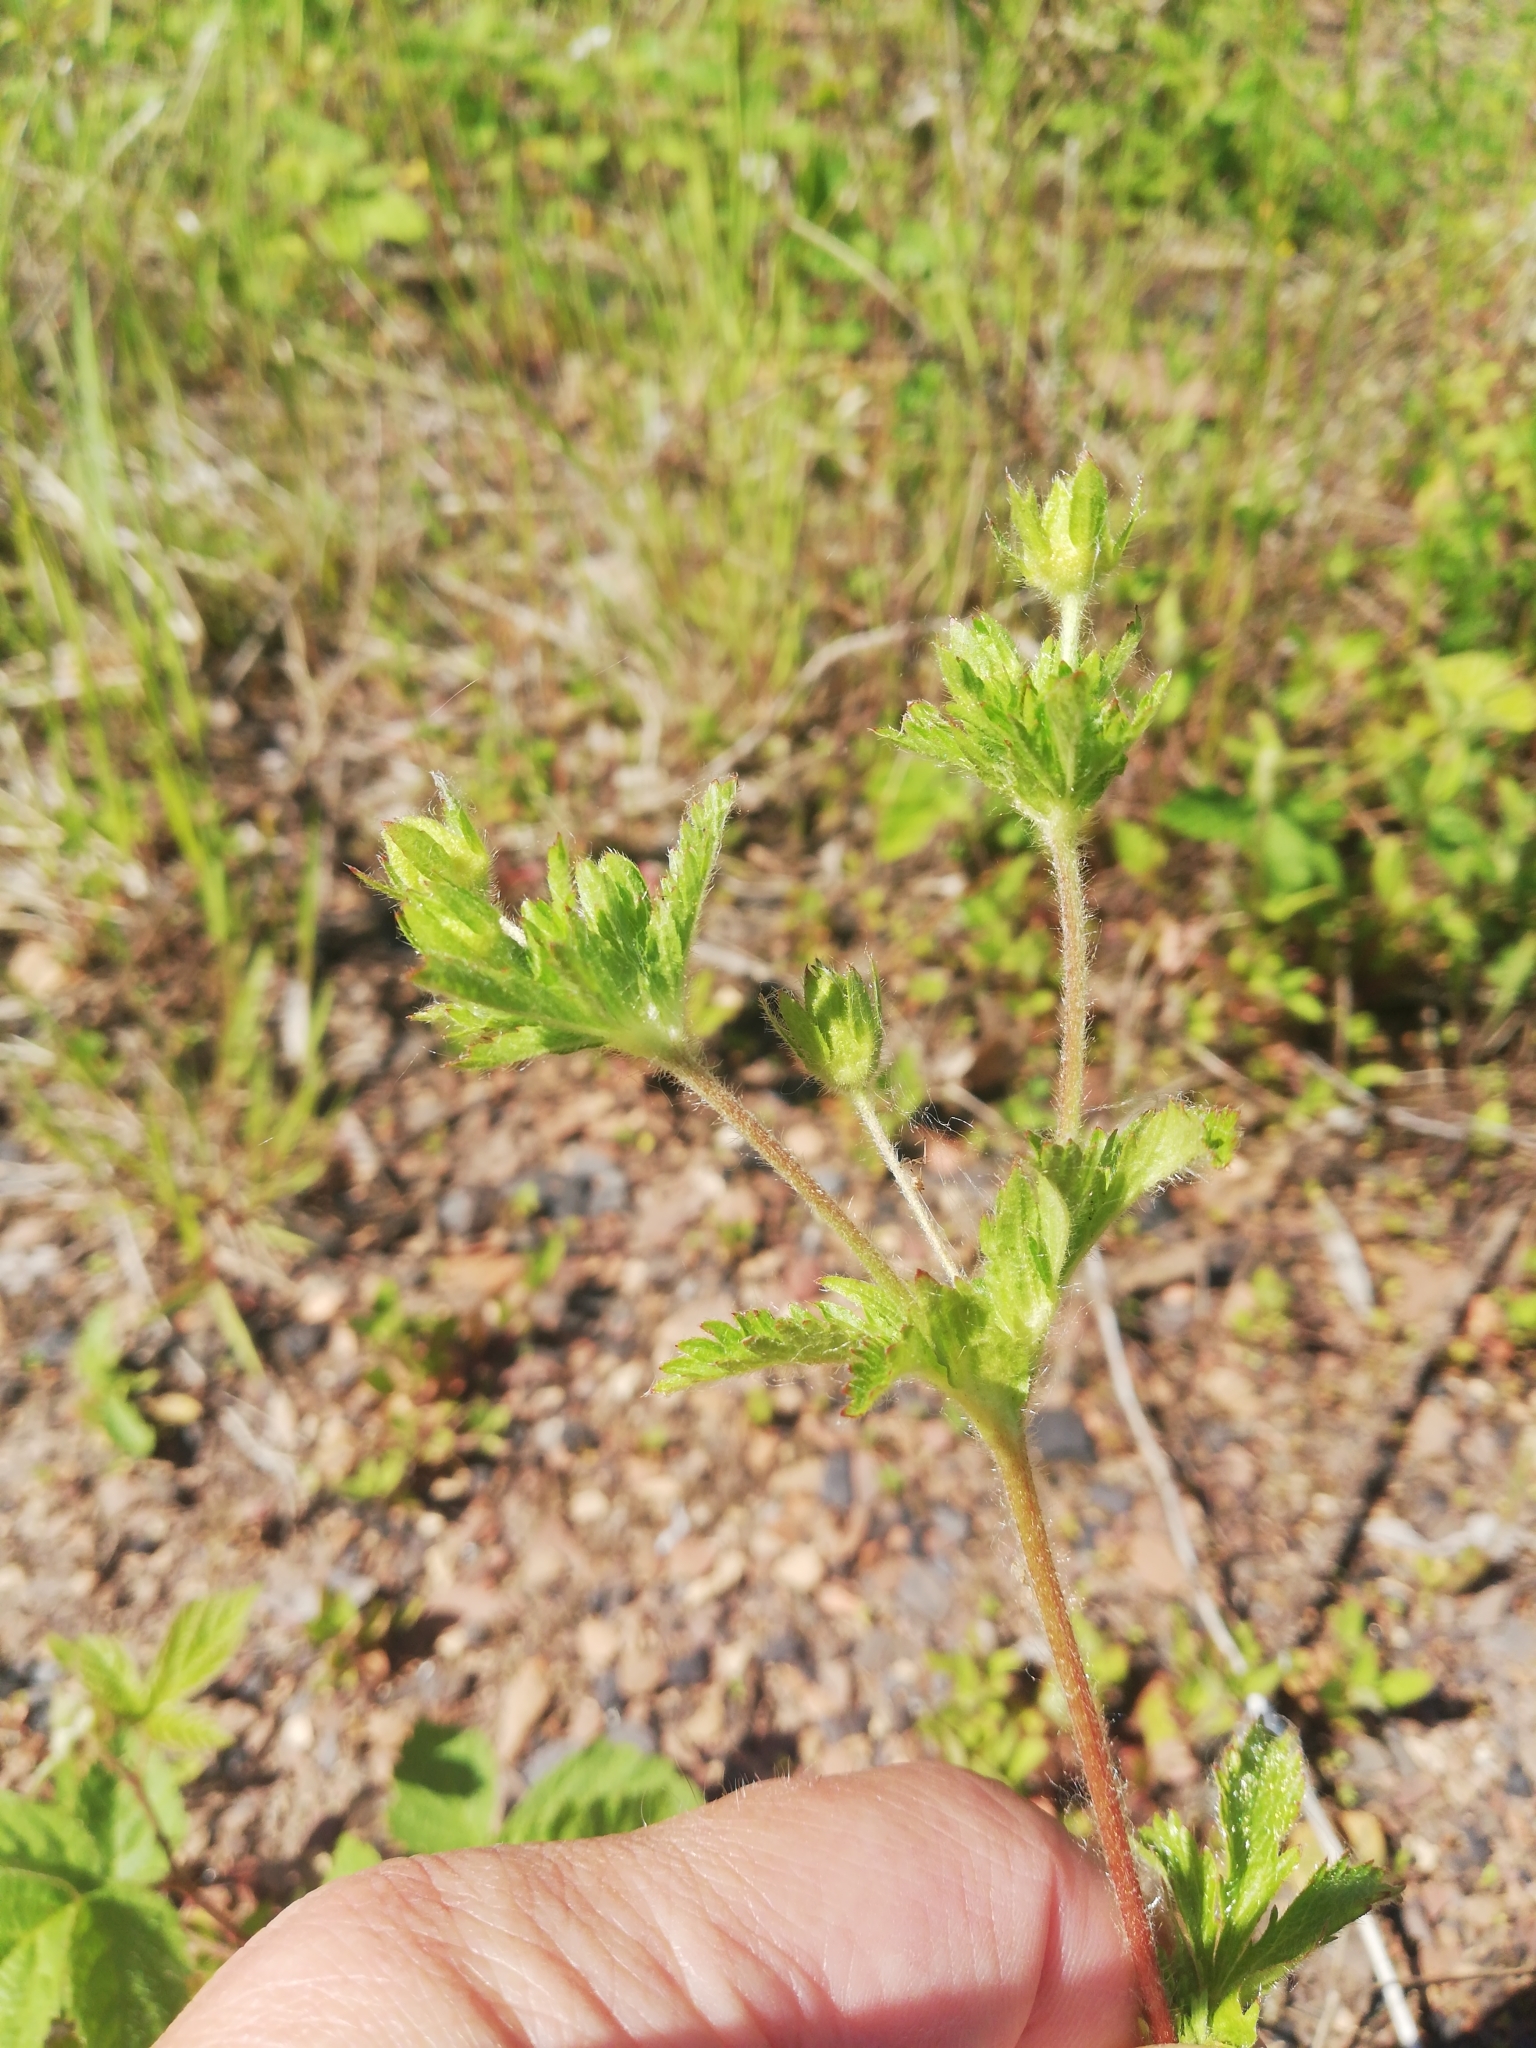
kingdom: Plantae
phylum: Tracheophyta
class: Magnoliopsida
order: Rosales
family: Rosaceae
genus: Potentilla
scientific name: Potentilla norvegica
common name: Ternate-leaved cinquefoil
